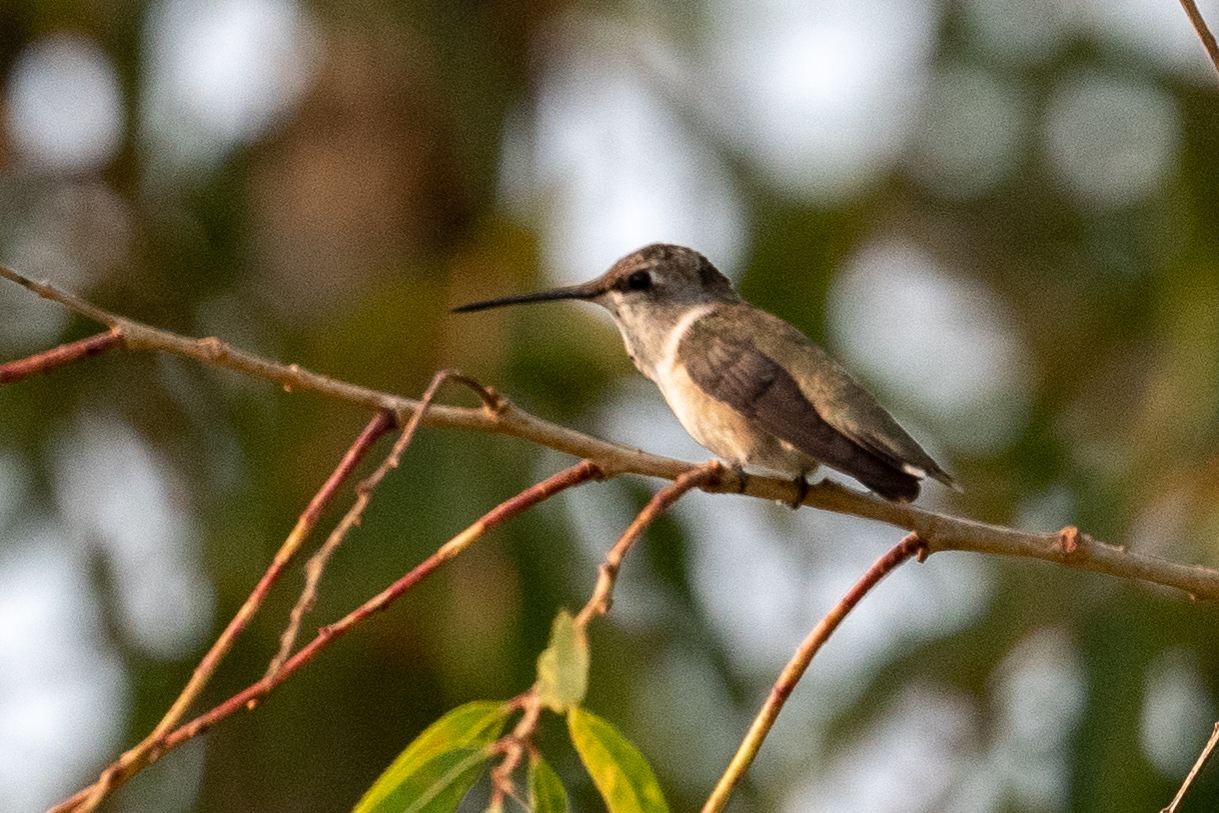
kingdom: Animalia
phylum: Chordata
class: Aves
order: Apodiformes
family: Trochilidae
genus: Archilochus
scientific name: Archilochus alexandri
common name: Black-chinned hummingbird
